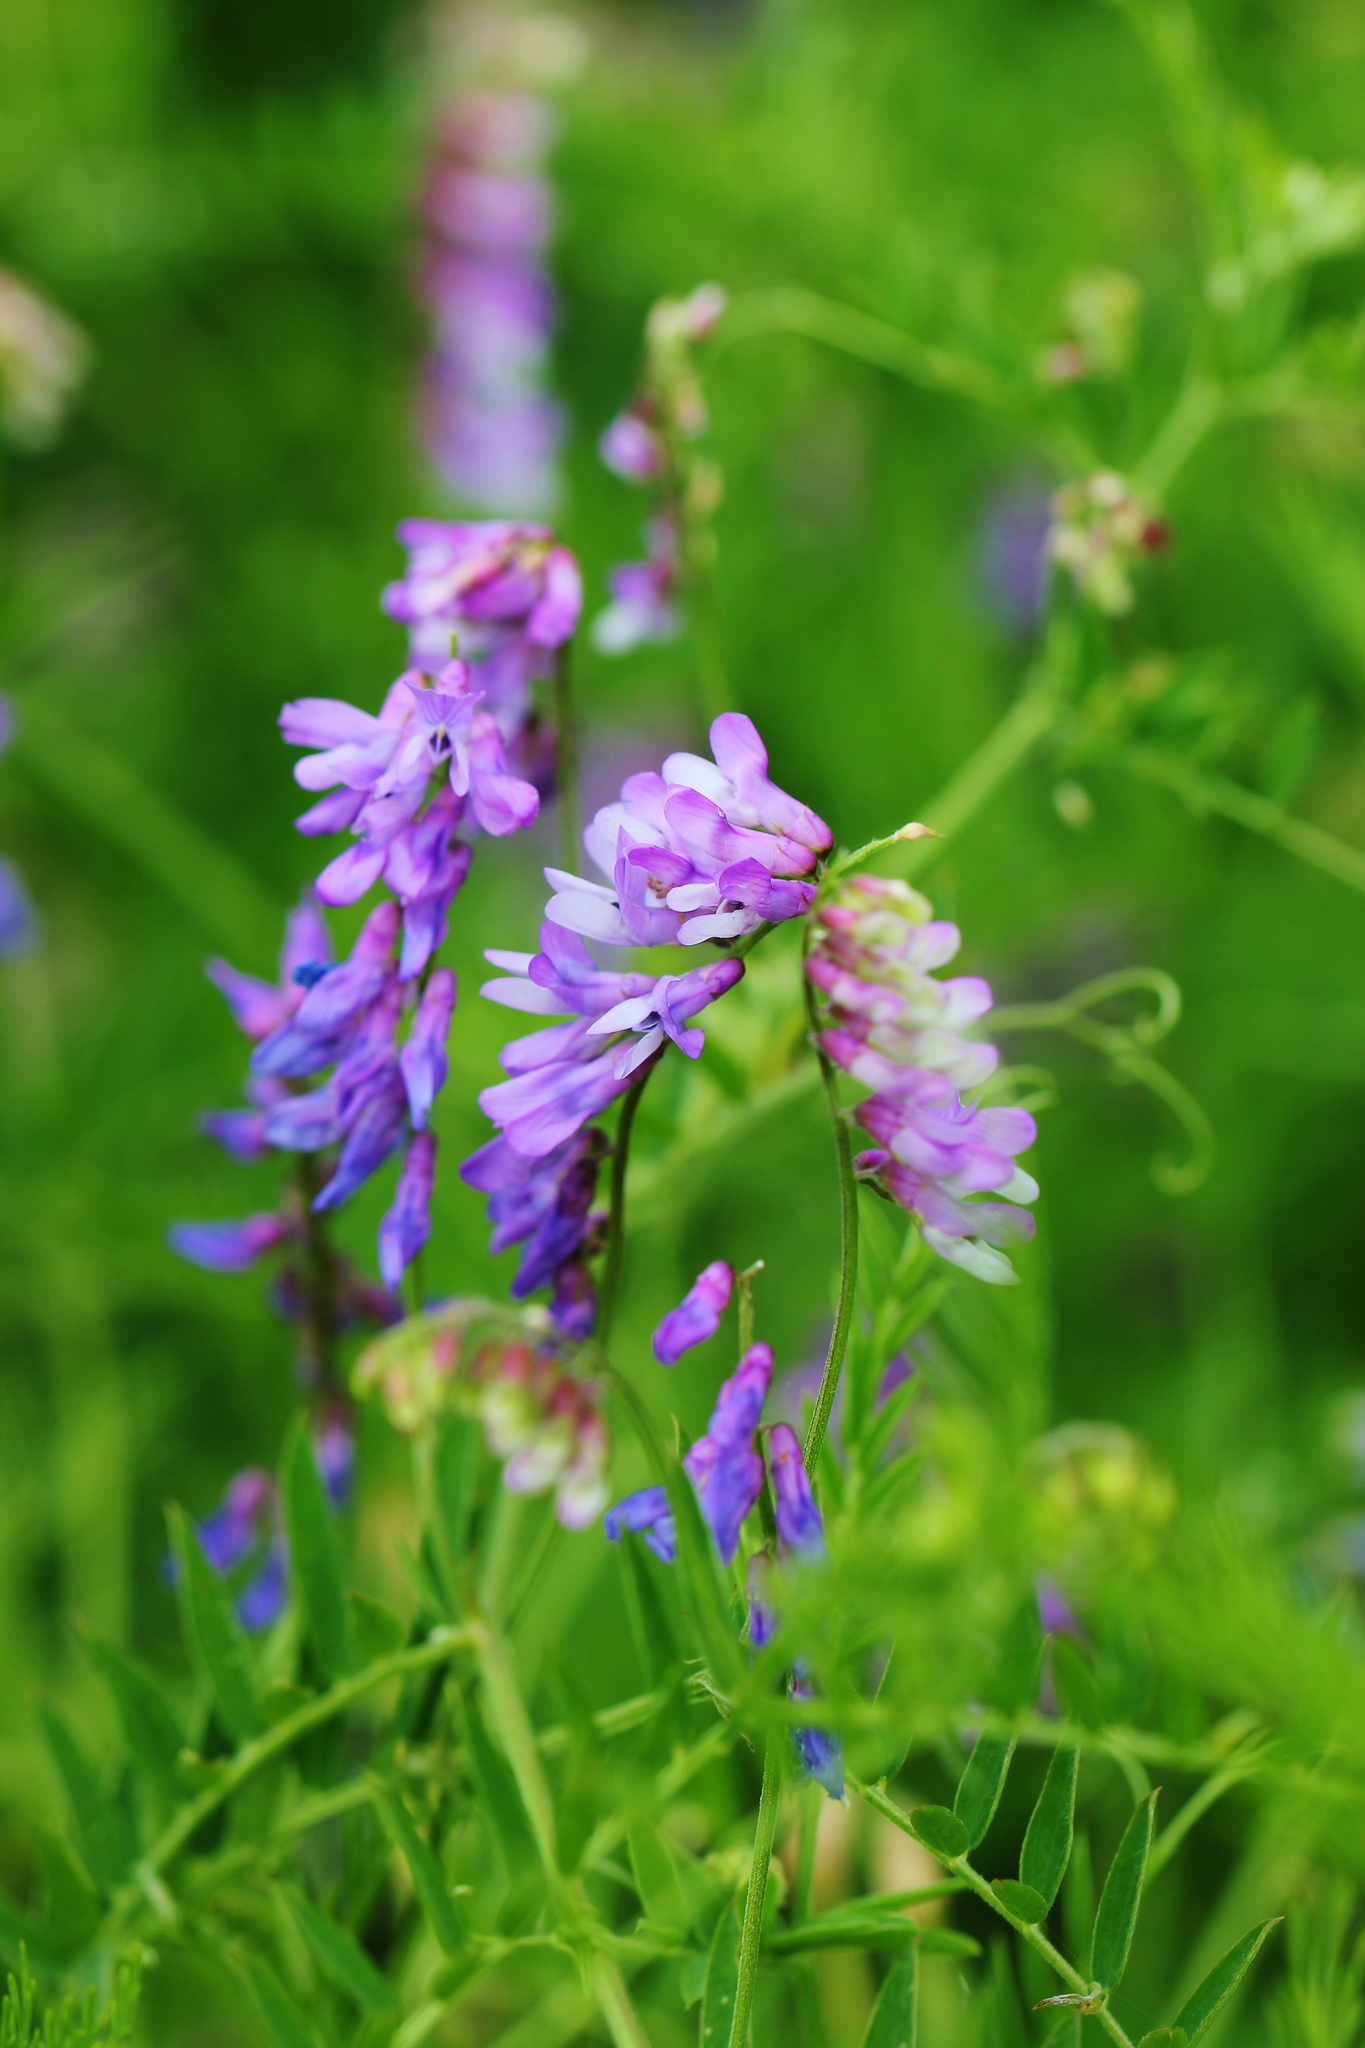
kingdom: Plantae
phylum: Tracheophyta
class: Magnoliopsida
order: Fabales
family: Fabaceae
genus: Vicia
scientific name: Vicia tenuifolia
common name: Fine-leaved vetch
